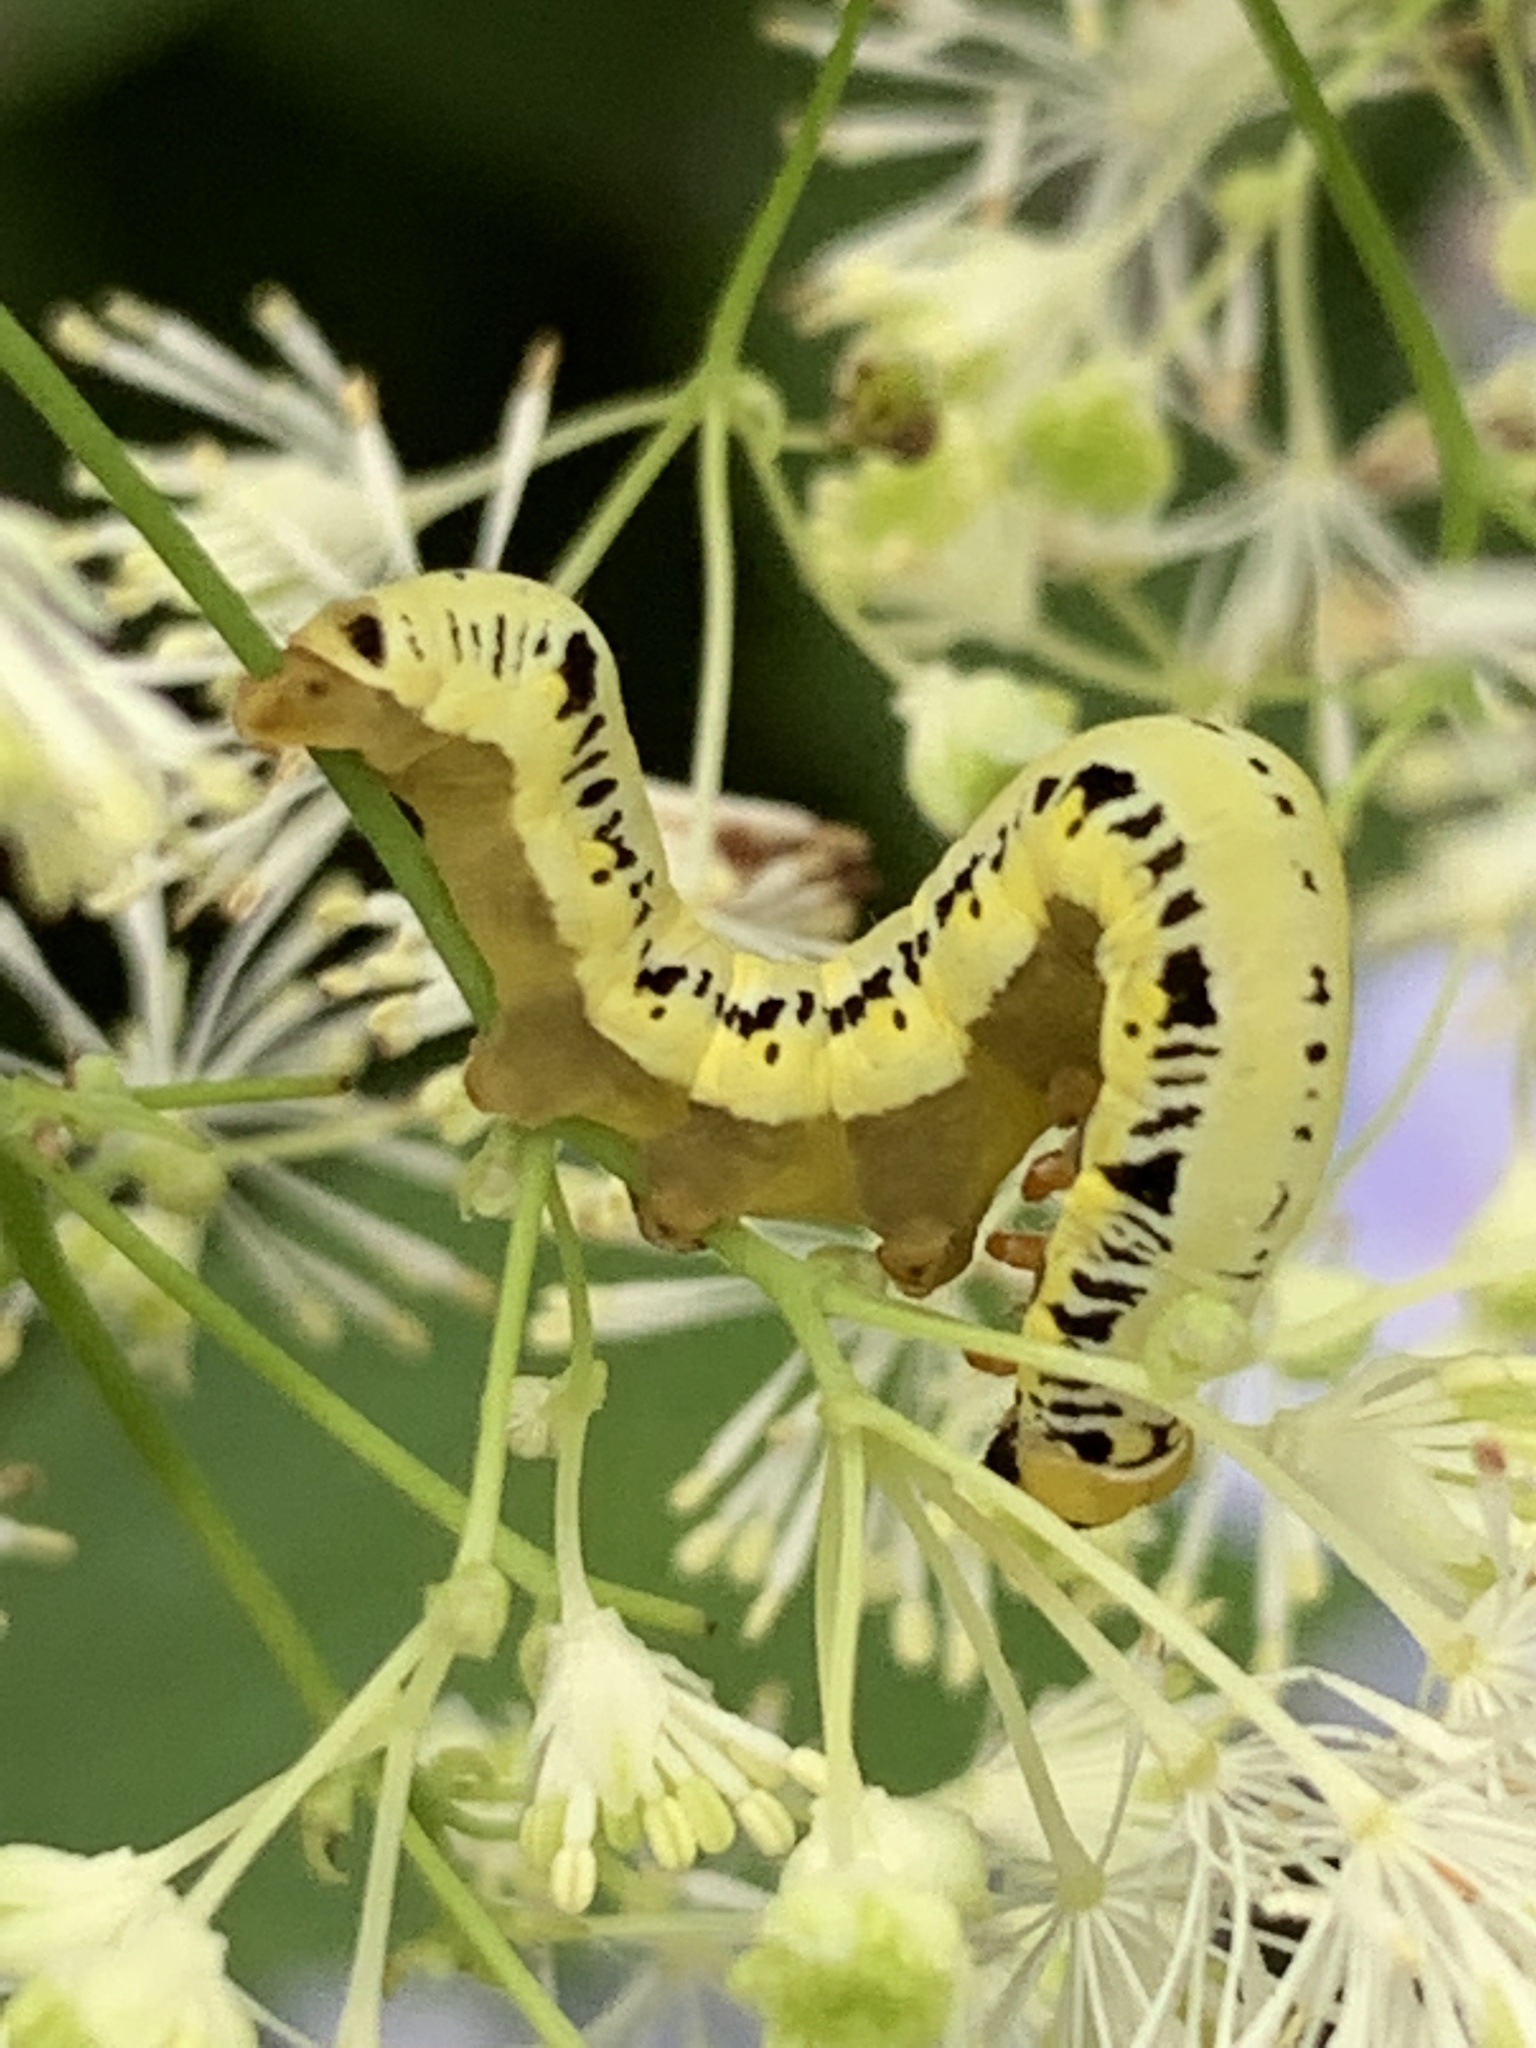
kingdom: Animalia
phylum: Arthropoda
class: Insecta
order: Lepidoptera
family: Erebidae
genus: Calyptra
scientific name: Calyptra canadensis
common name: Canadian owlet
